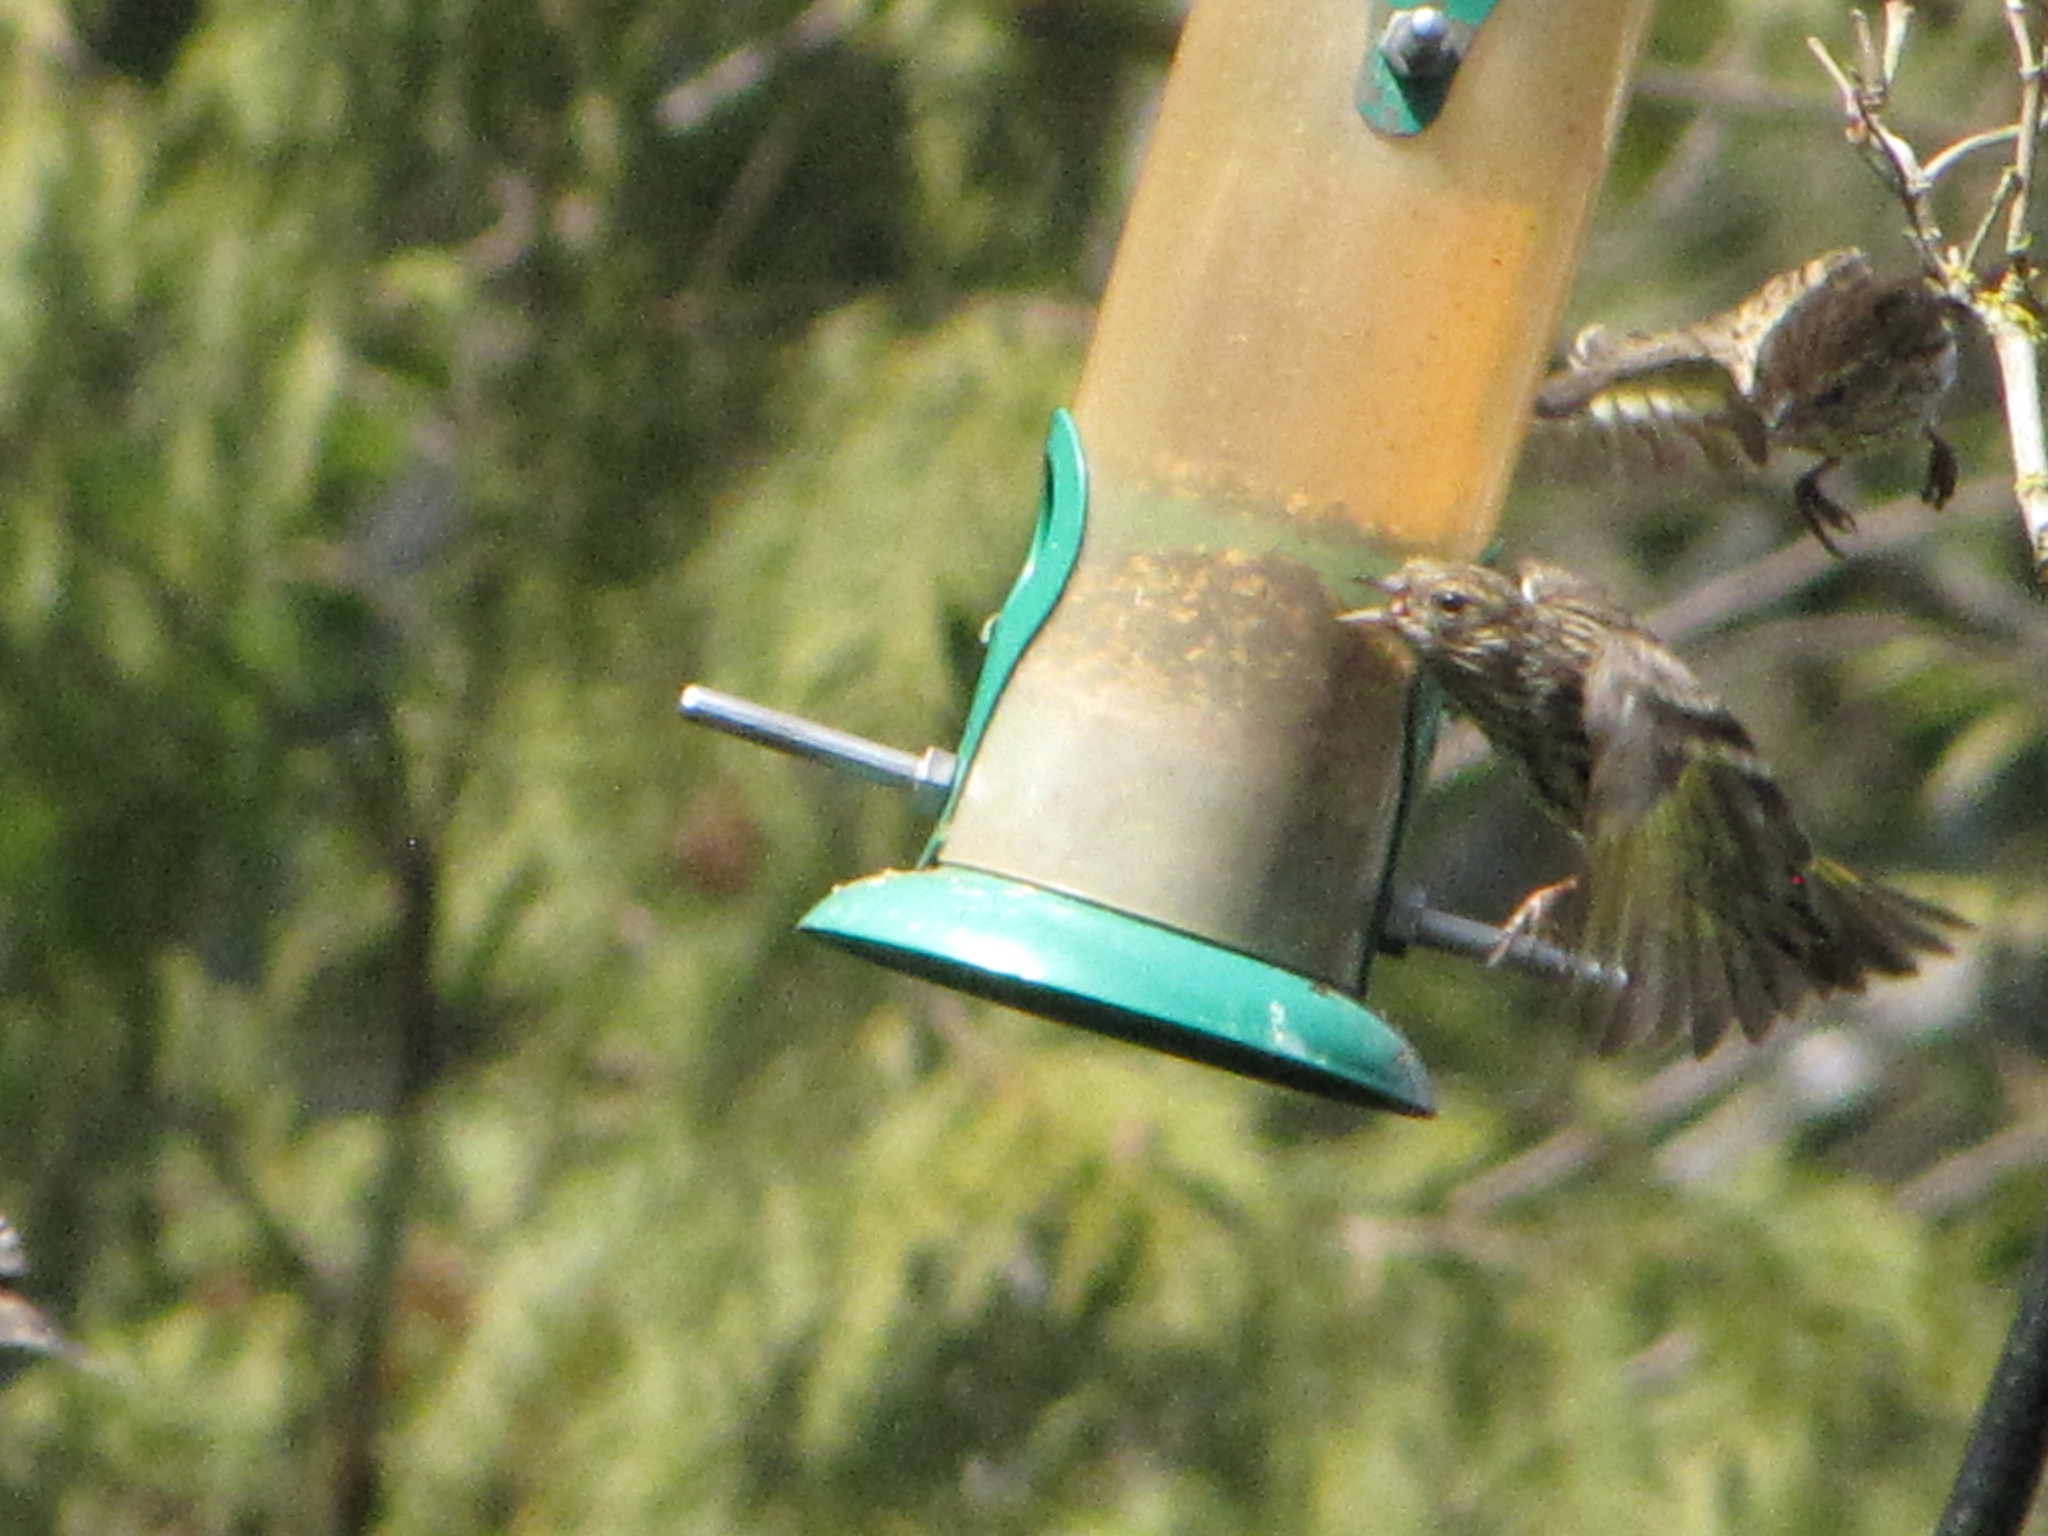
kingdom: Animalia
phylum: Chordata
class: Aves
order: Passeriformes
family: Fringillidae
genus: Spinus
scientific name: Spinus pinus
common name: Pine siskin
